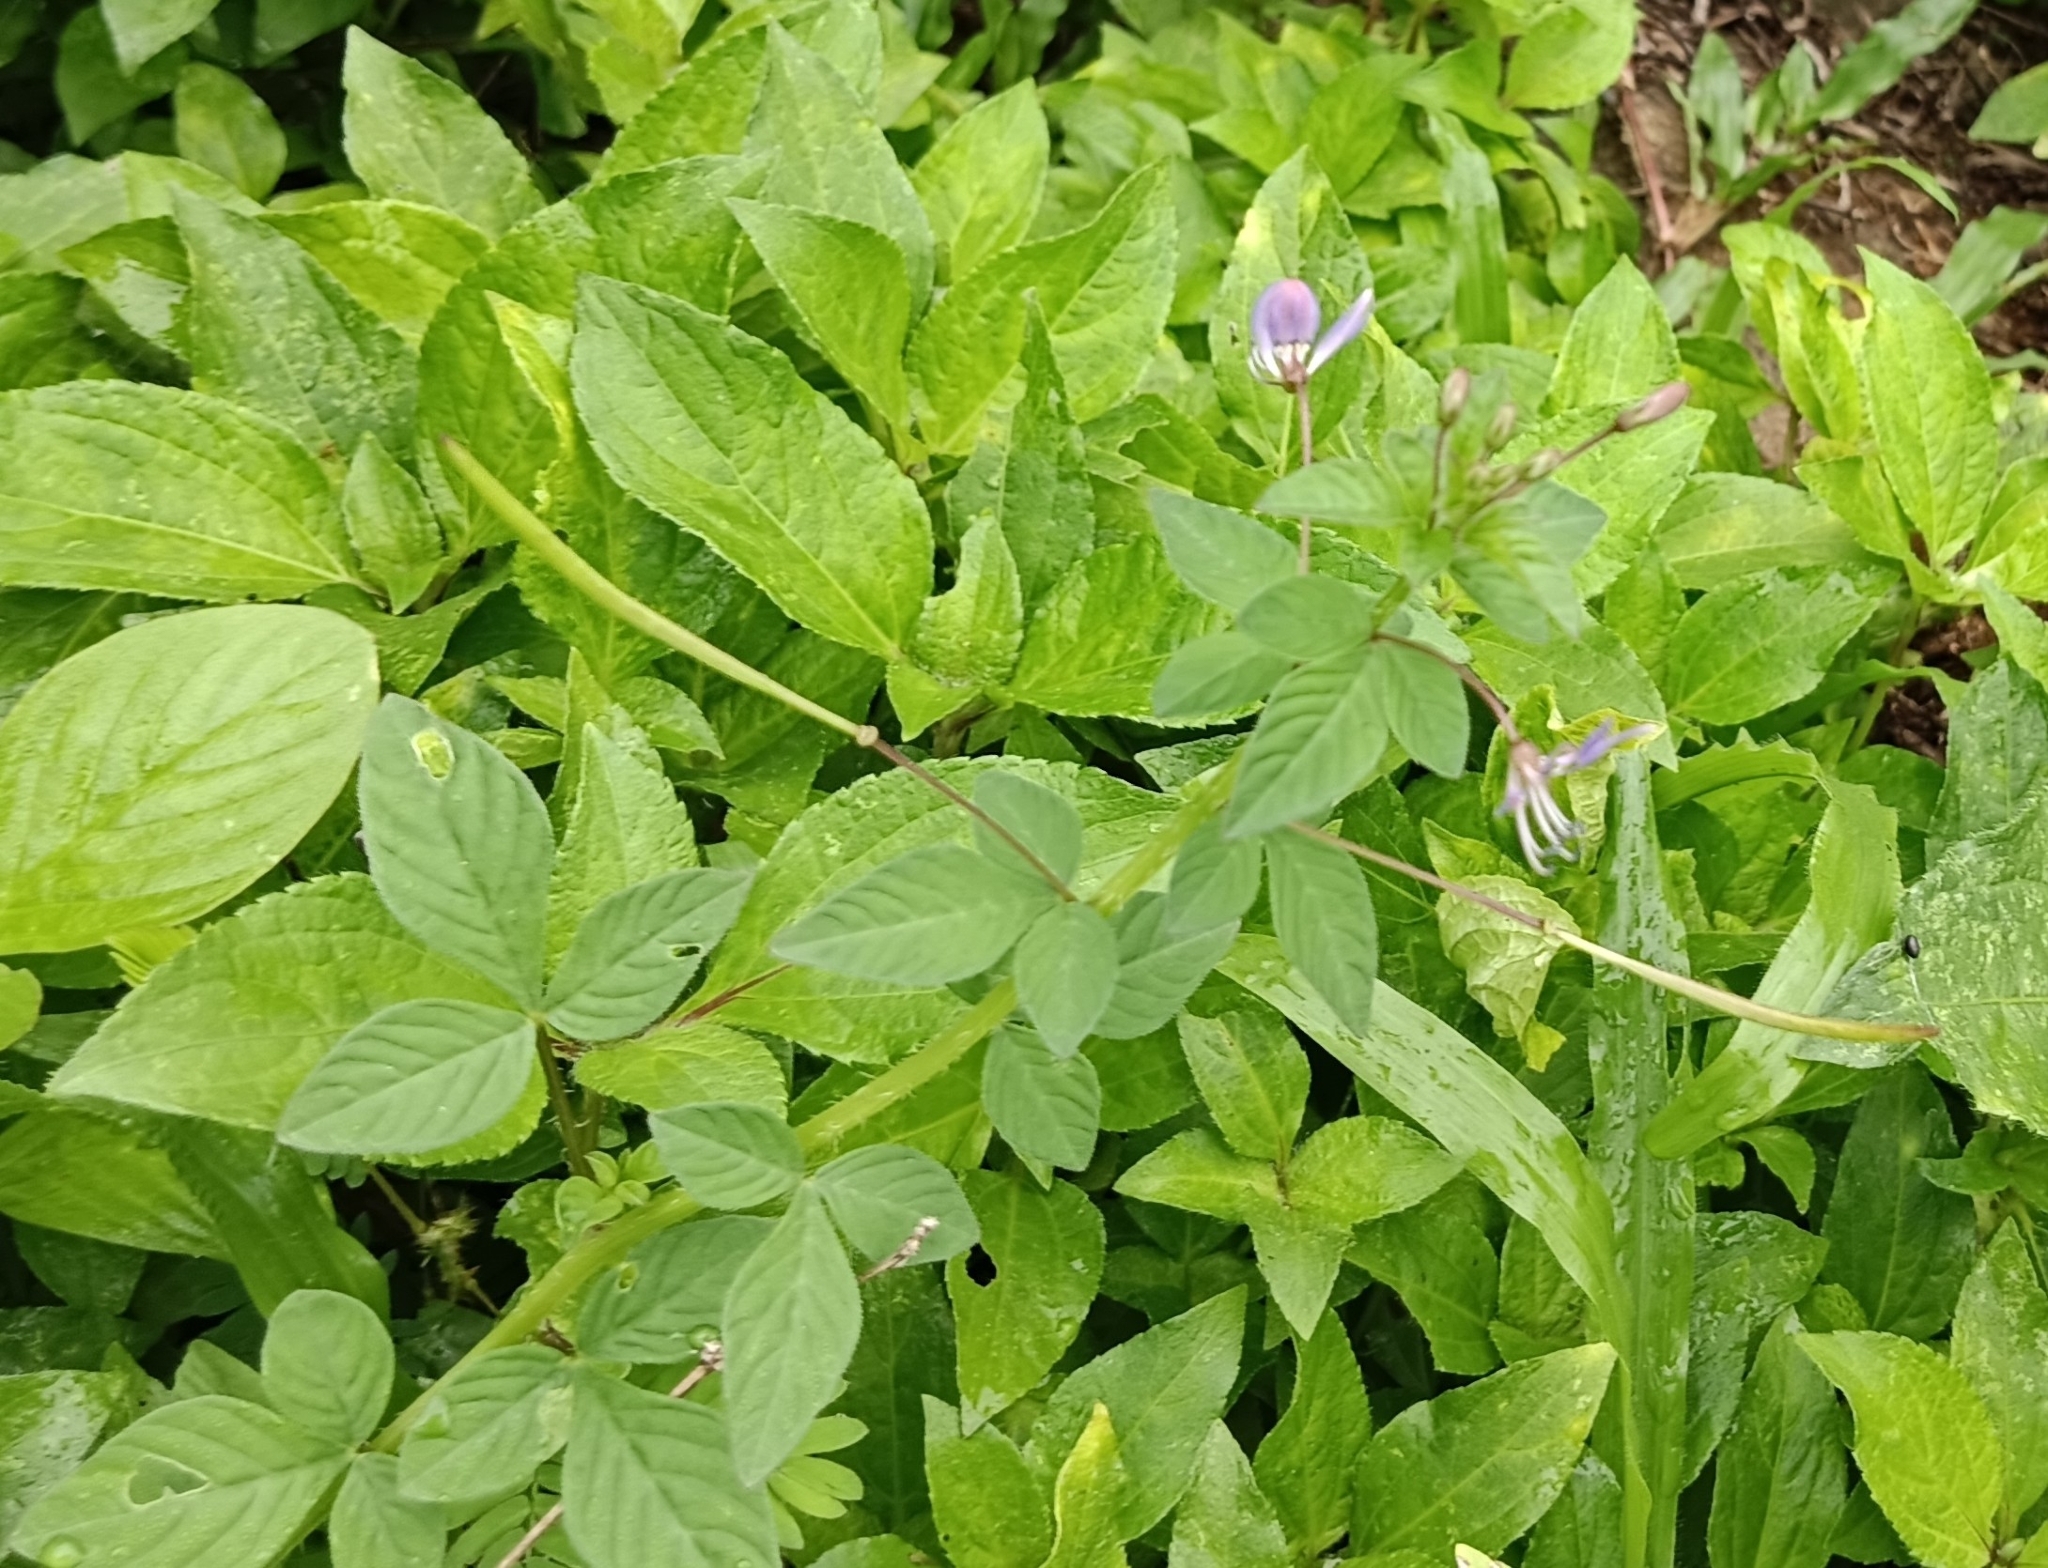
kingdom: Plantae
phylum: Tracheophyta
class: Magnoliopsida
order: Brassicales
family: Cleomaceae
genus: Sieruela
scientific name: Sieruela rutidosperma
